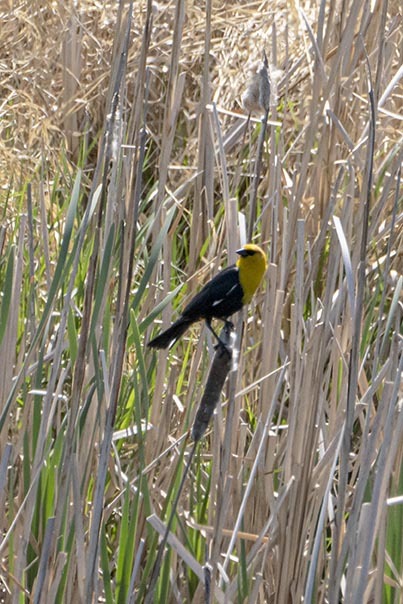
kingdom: Animalia
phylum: Chordata
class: Aves
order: Passeriformes
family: Icteridae
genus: Xanthocephalus
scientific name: Xanthocephalus xanthocephalus
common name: Yellow-headed blackbird
